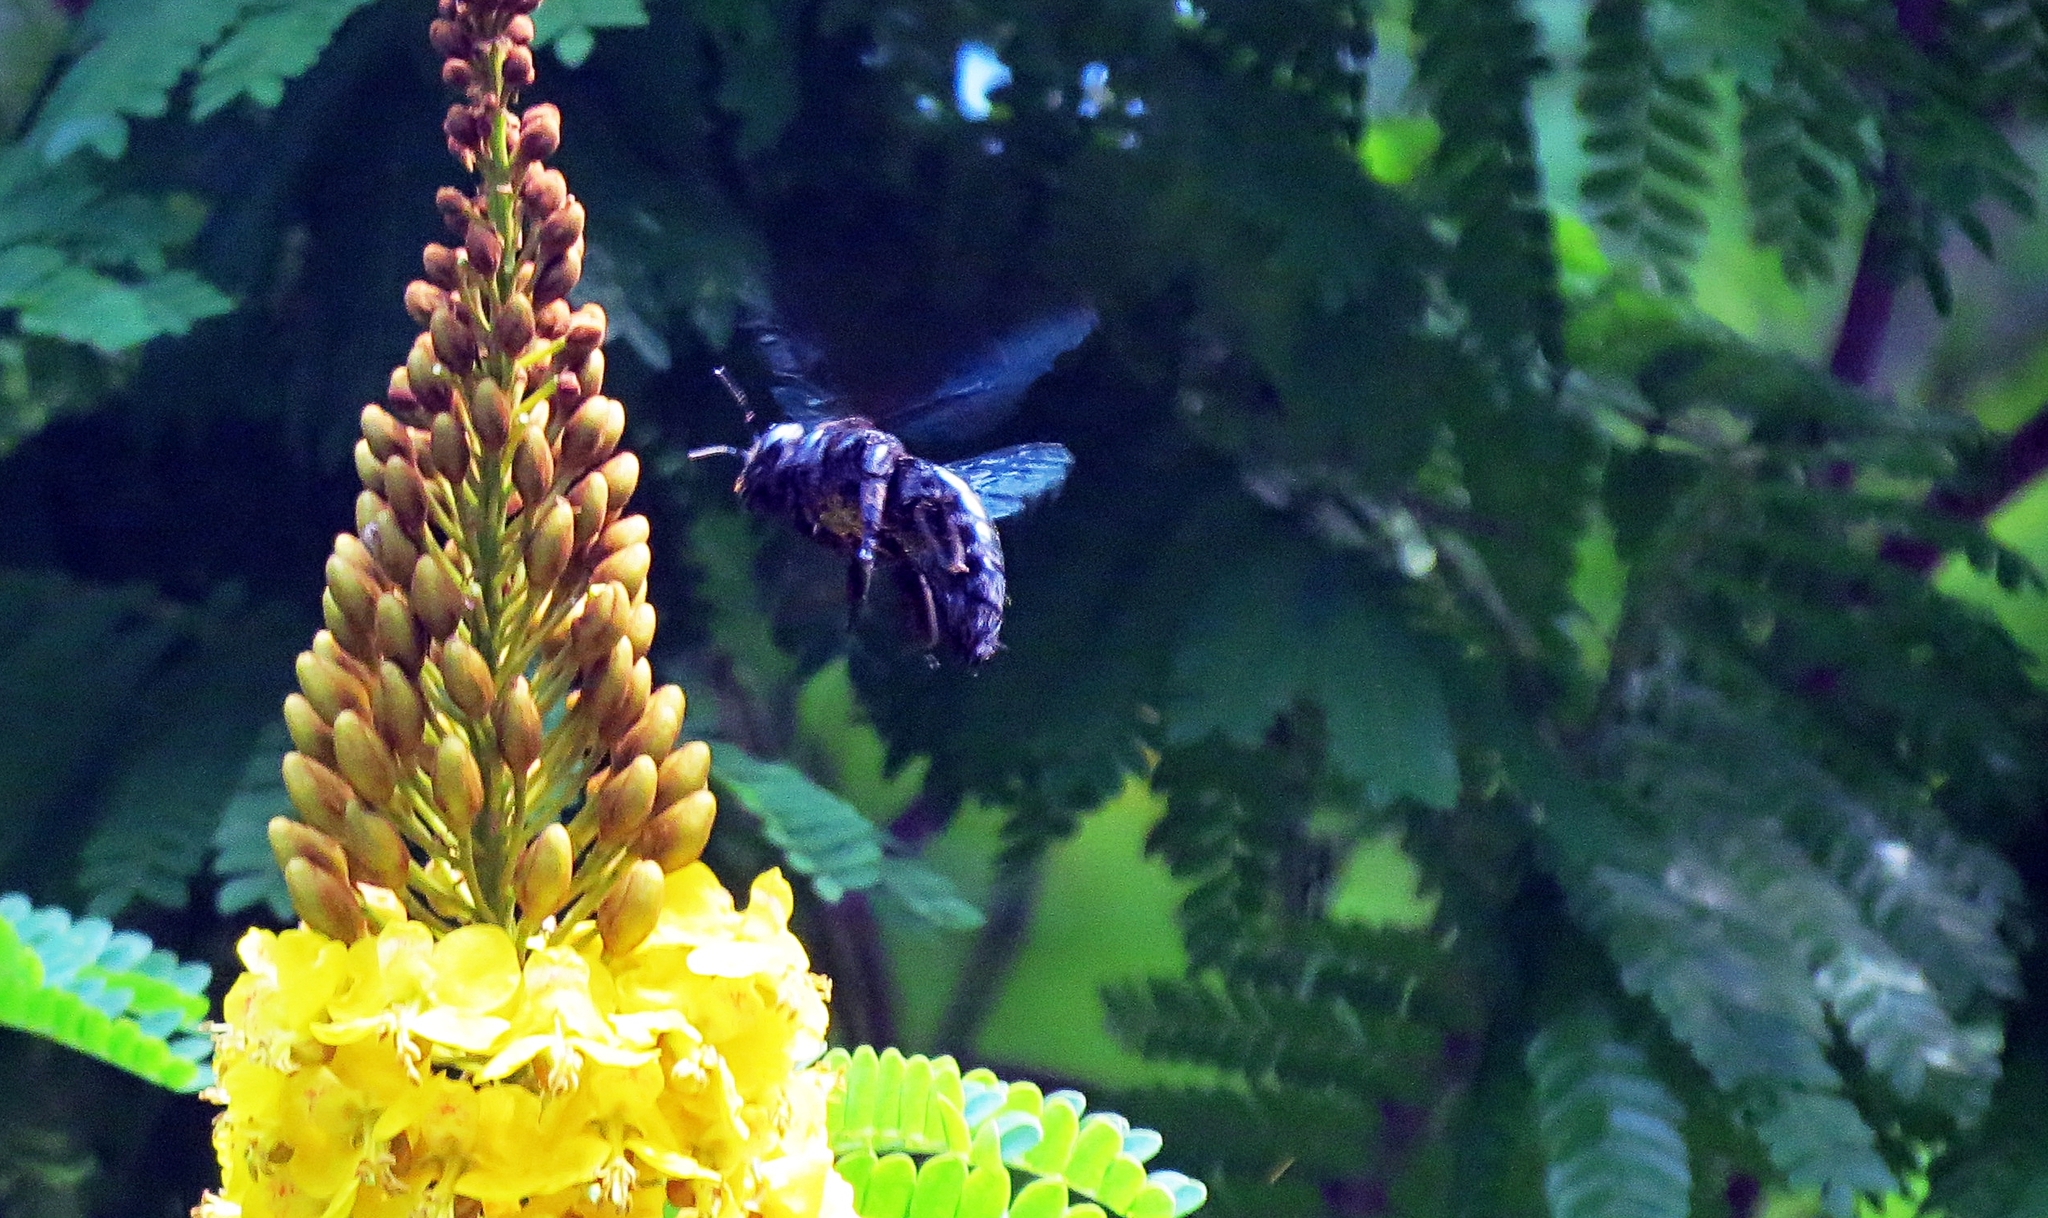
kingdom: Animalia
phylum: Arthropoda
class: Insecta
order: Hymenoptera
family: Apidae
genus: Xylocopa
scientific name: Xylocopa fimbriata
